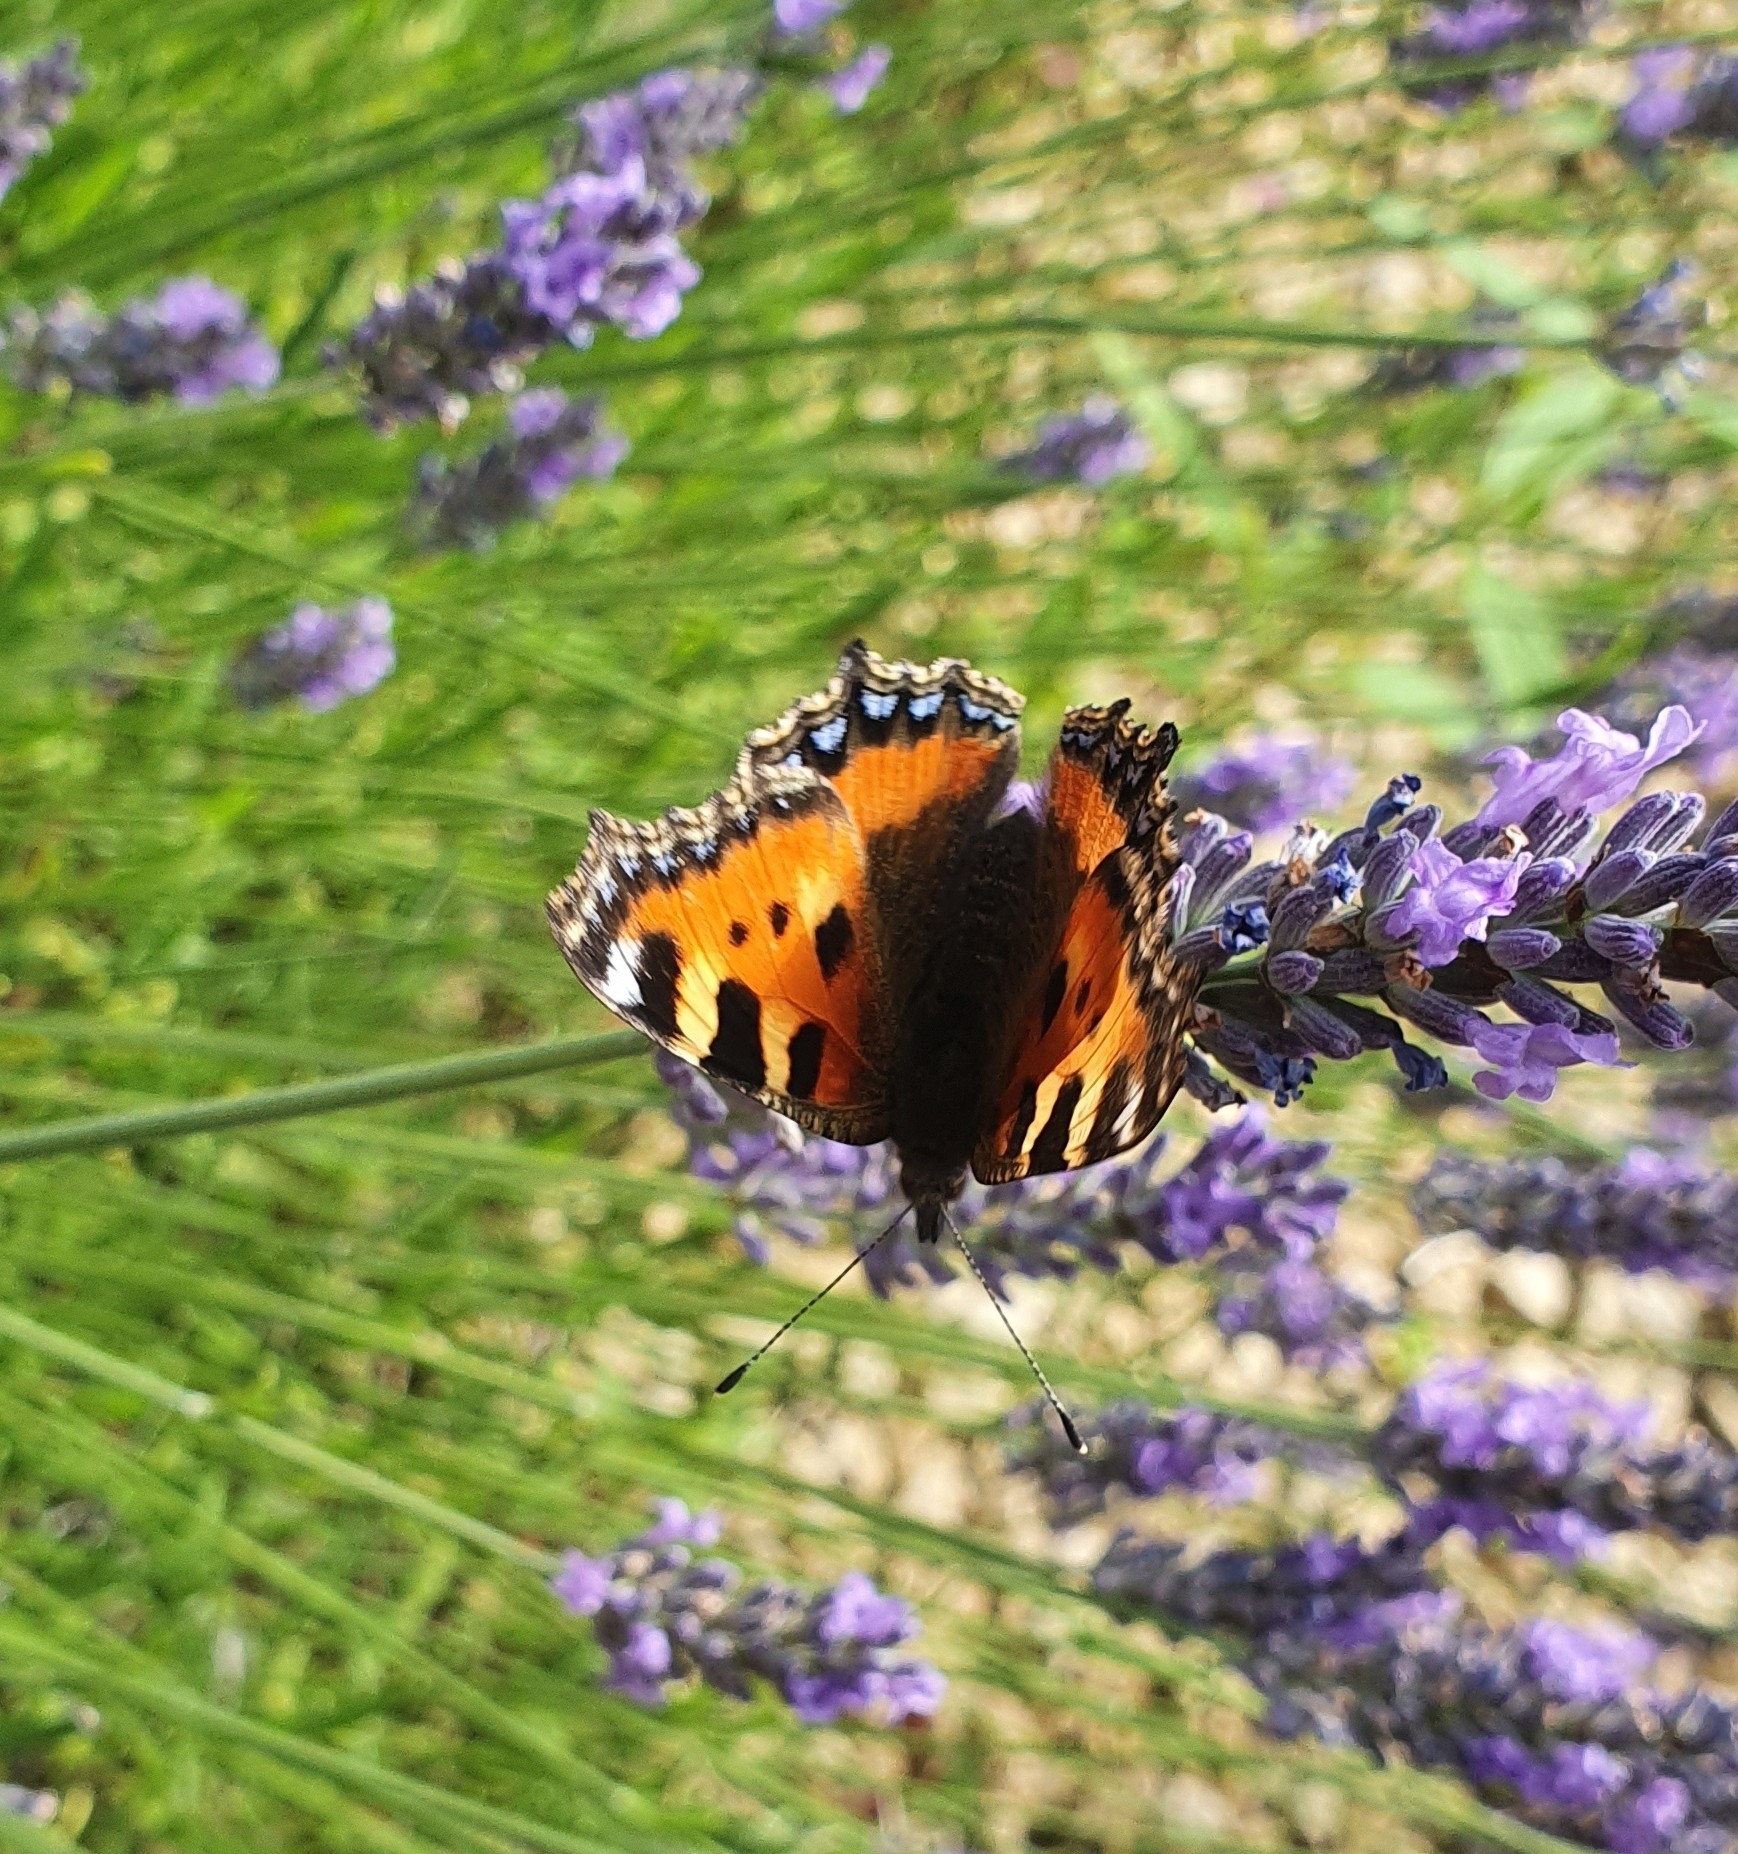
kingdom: Animalia
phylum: Arthropoda
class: Insecta
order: Lepidoptera
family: Nymphalidae
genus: Aglais
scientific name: Aglais urticae
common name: Small tortoiseshell
